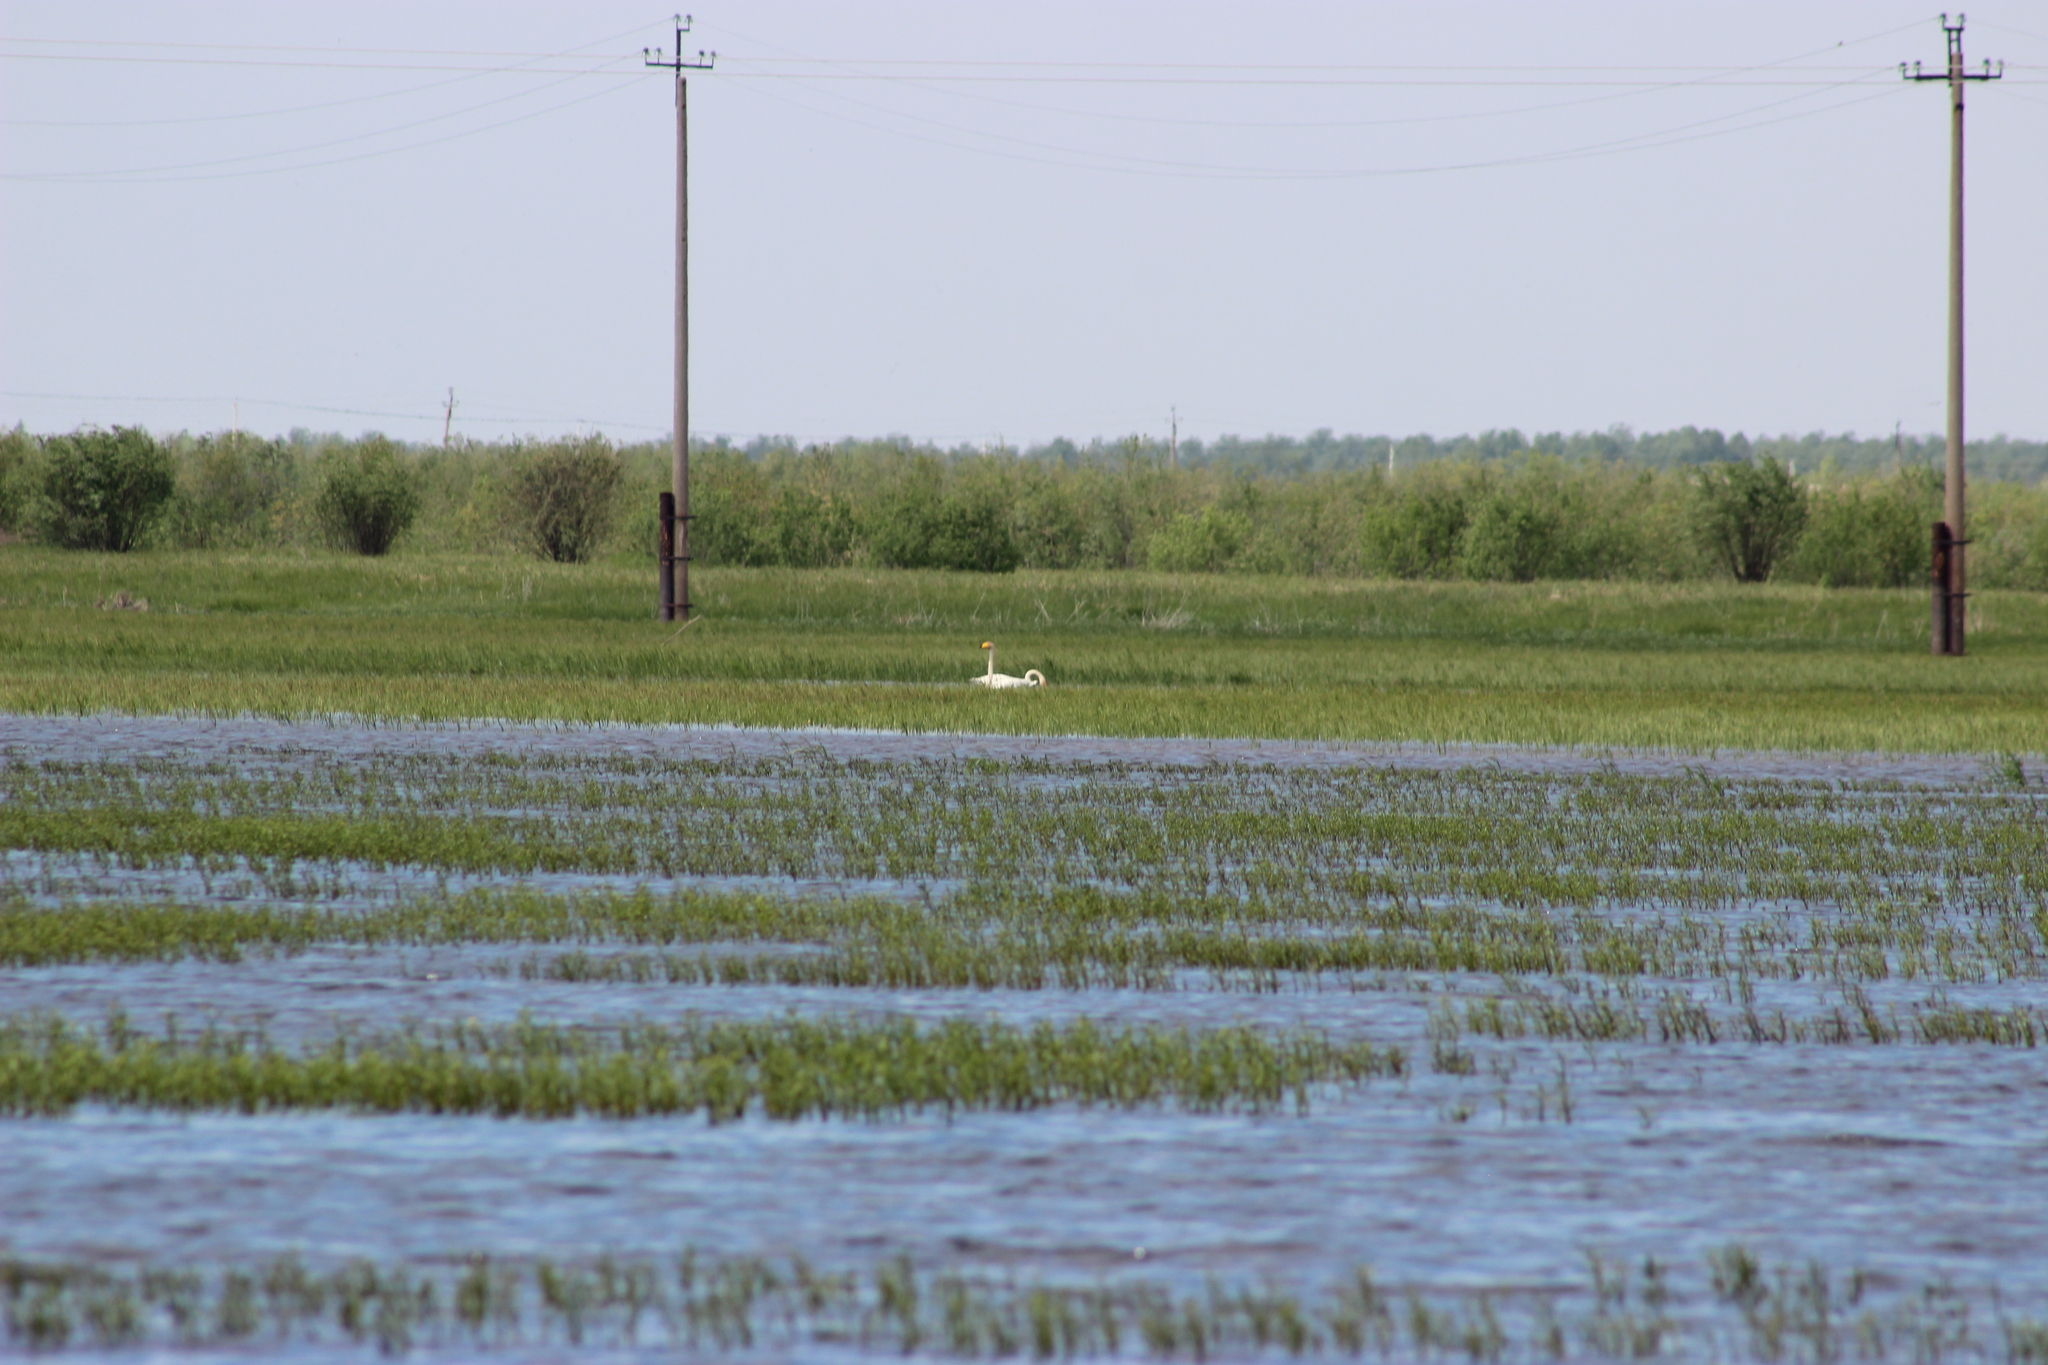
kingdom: Animalia
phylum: Chordata
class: Aves
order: Anseriformes
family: Anatidae
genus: Cygnus
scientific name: Cygnus cygnus
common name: Whooper swan
